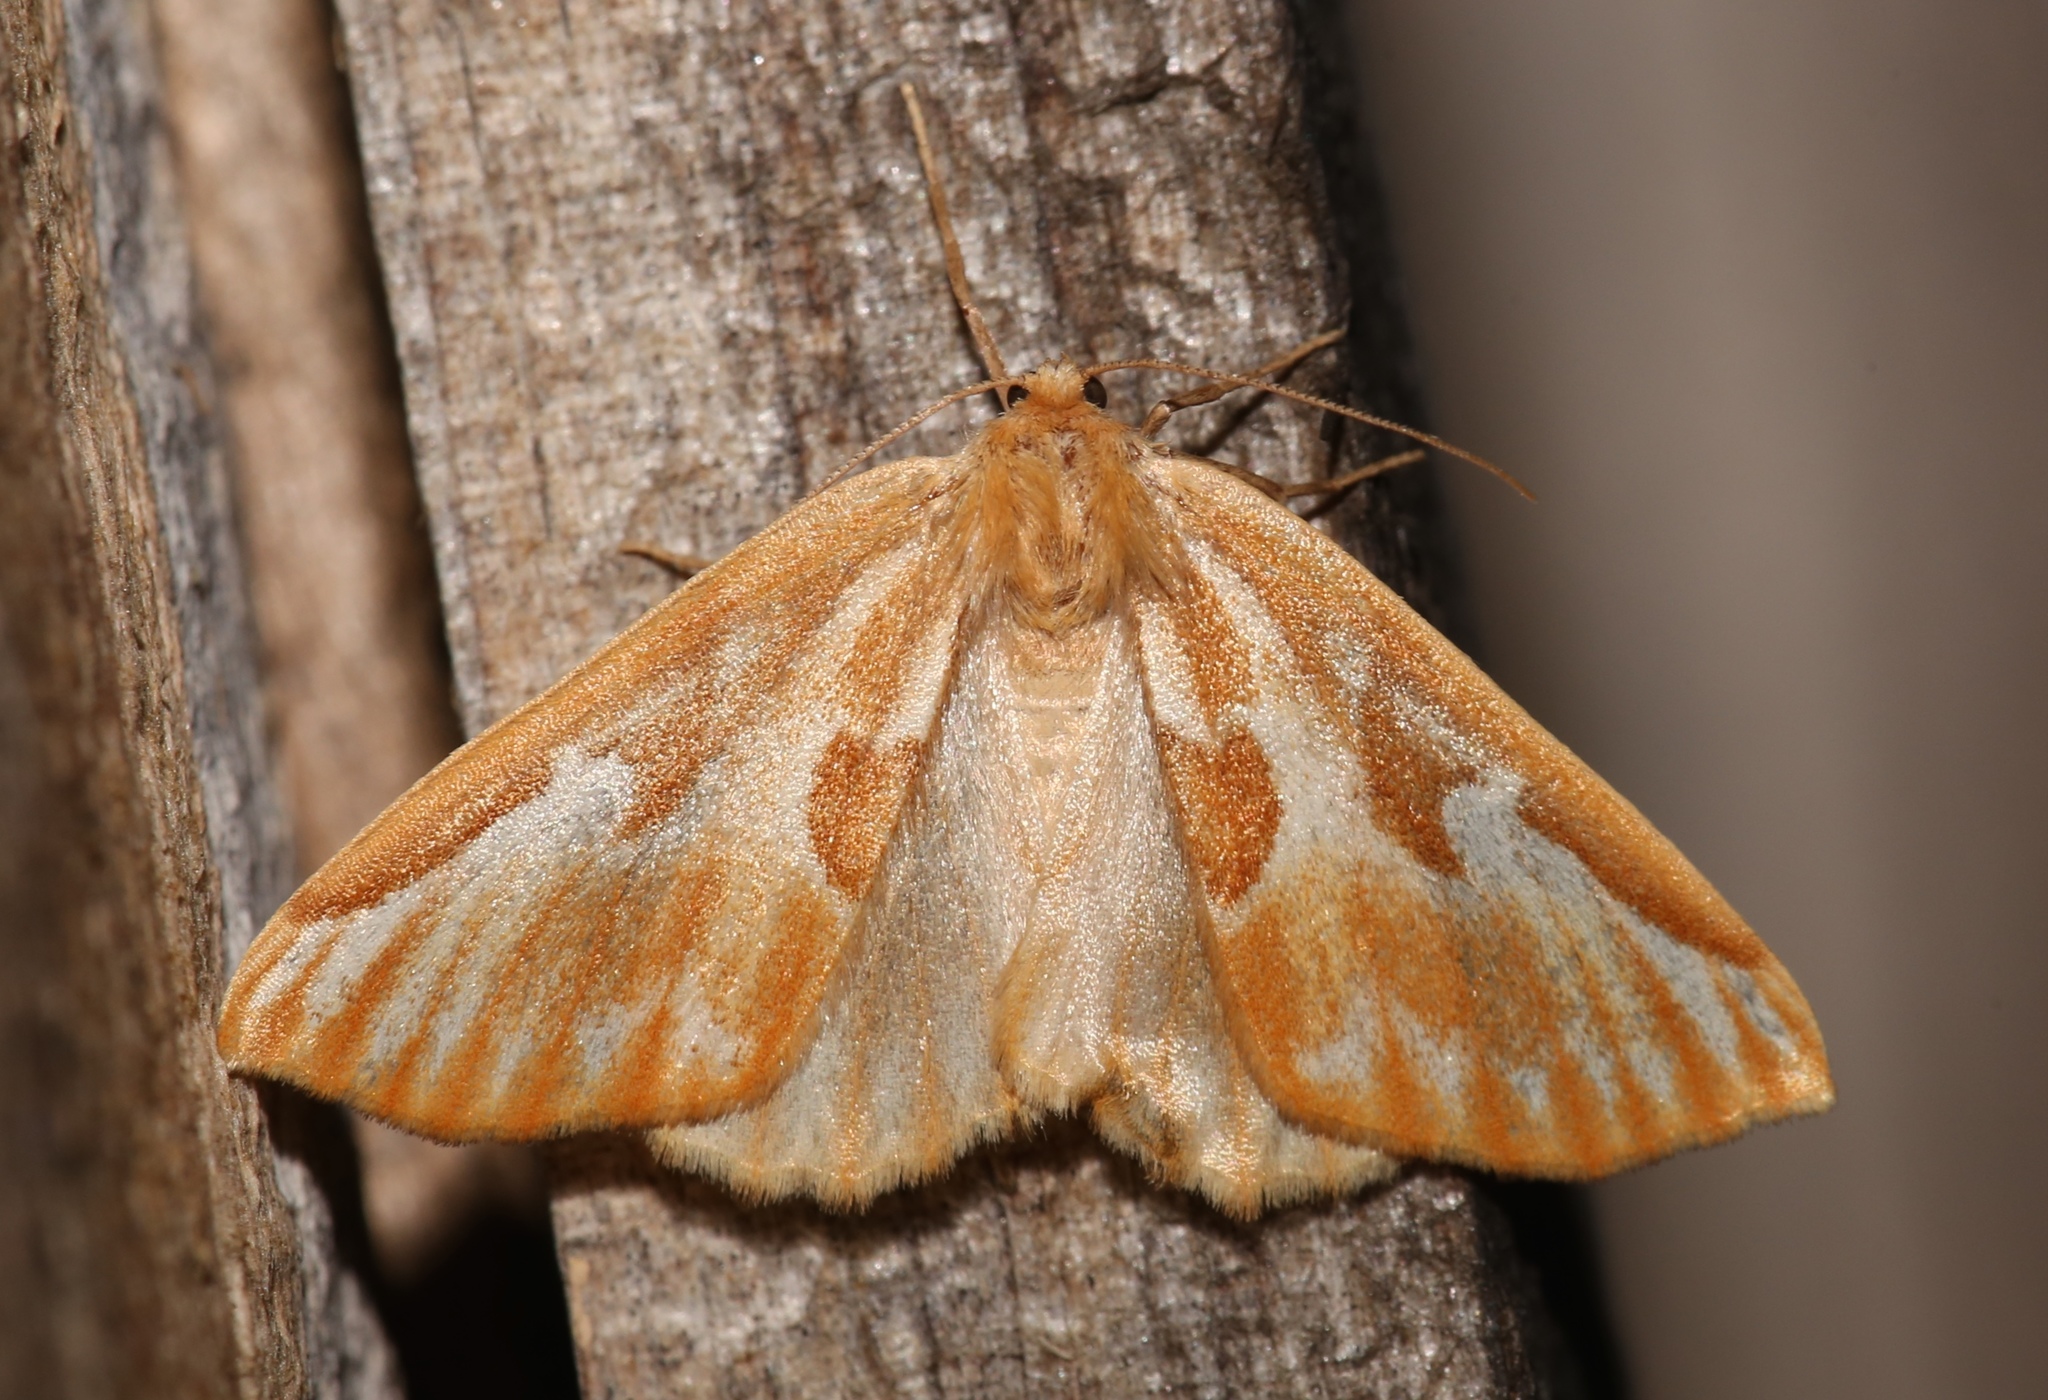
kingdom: Animalia
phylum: Arthropoda
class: Insecta
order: Lepidoptera
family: Geometridae
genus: Caripeta
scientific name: Caripeta piniata
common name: Northern pine looper moth
